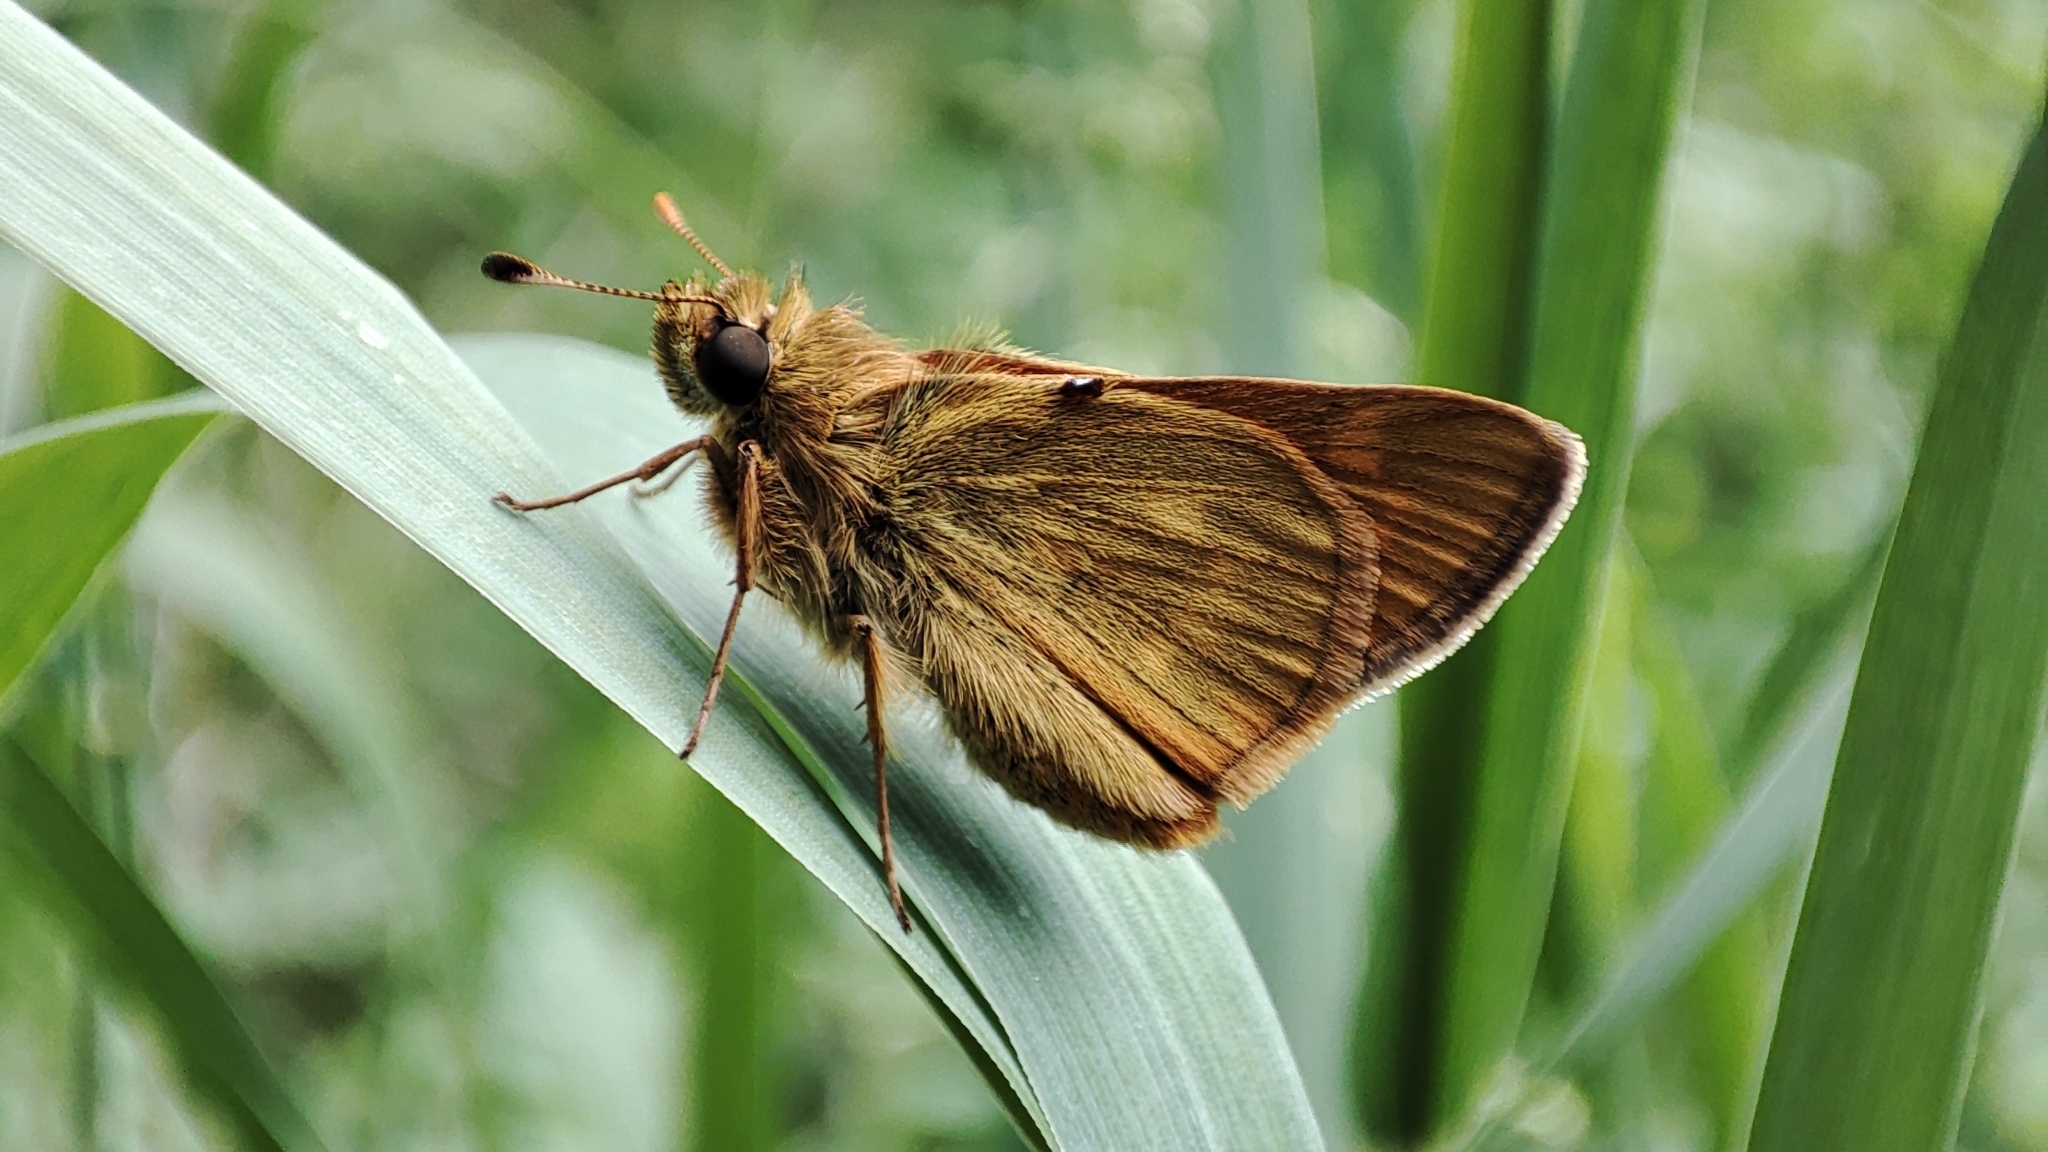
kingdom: Animalia
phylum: Arthropoda
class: Insecta
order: Lepidoptera
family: Hesperiidae
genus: Ochlodes
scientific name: Ochlodes venata
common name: Large skipper
